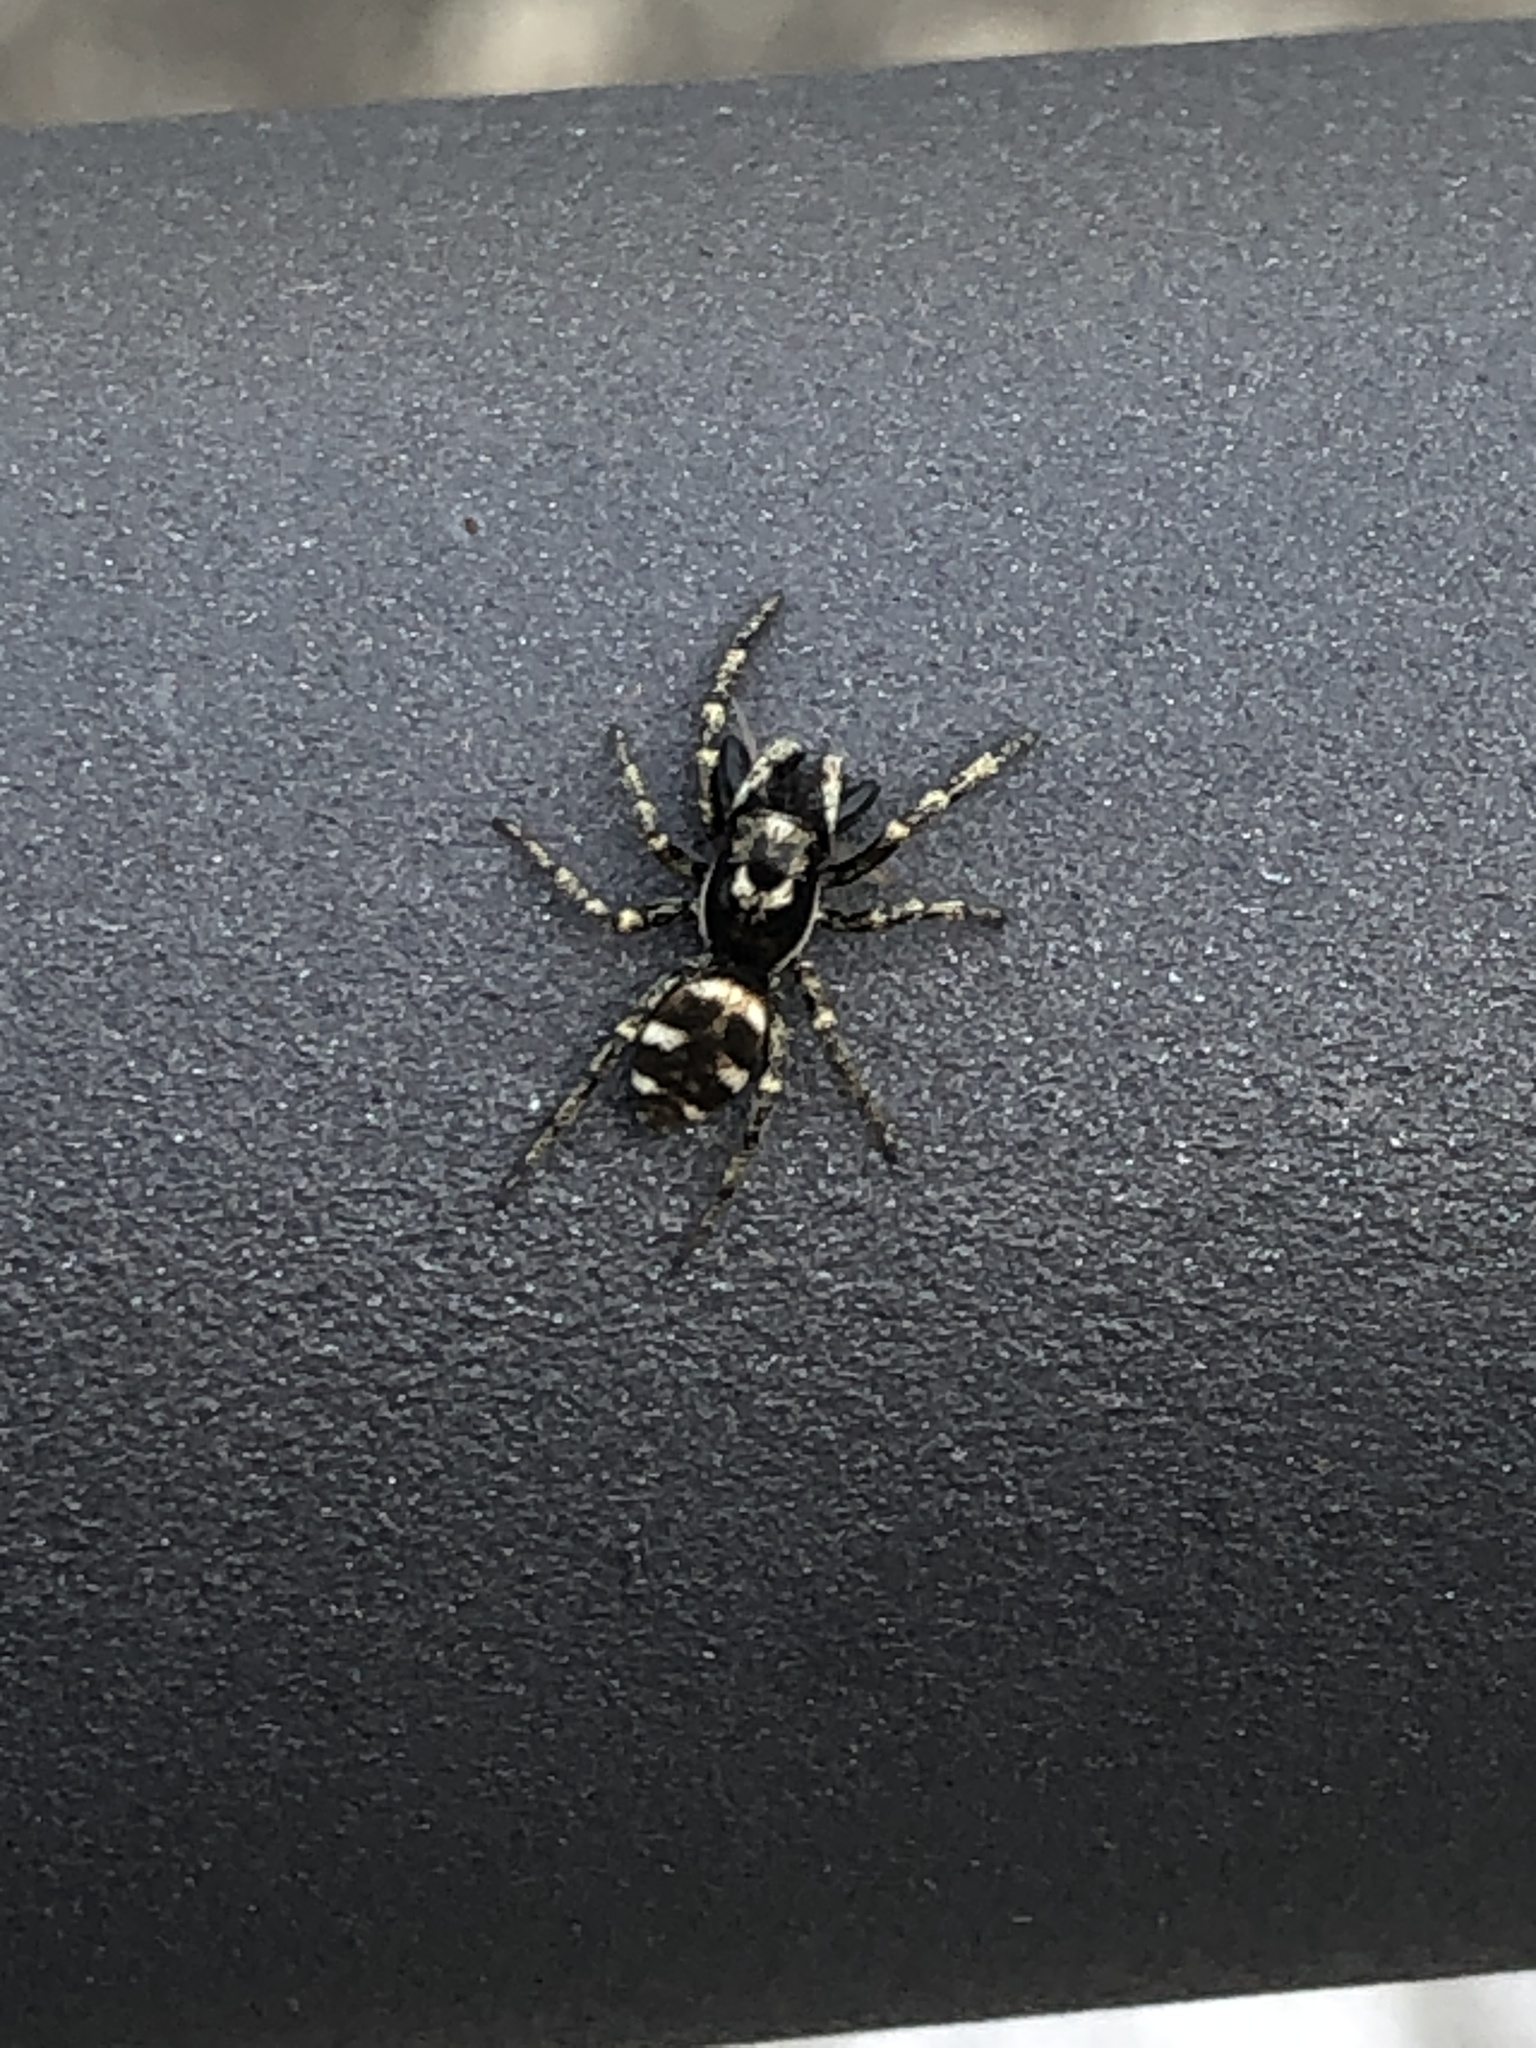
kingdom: Animalia
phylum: Arthropoda
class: Arachnida
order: Araneae
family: Salticidae
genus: Salticus
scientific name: Salticus scenicus
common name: Zebra jumper
